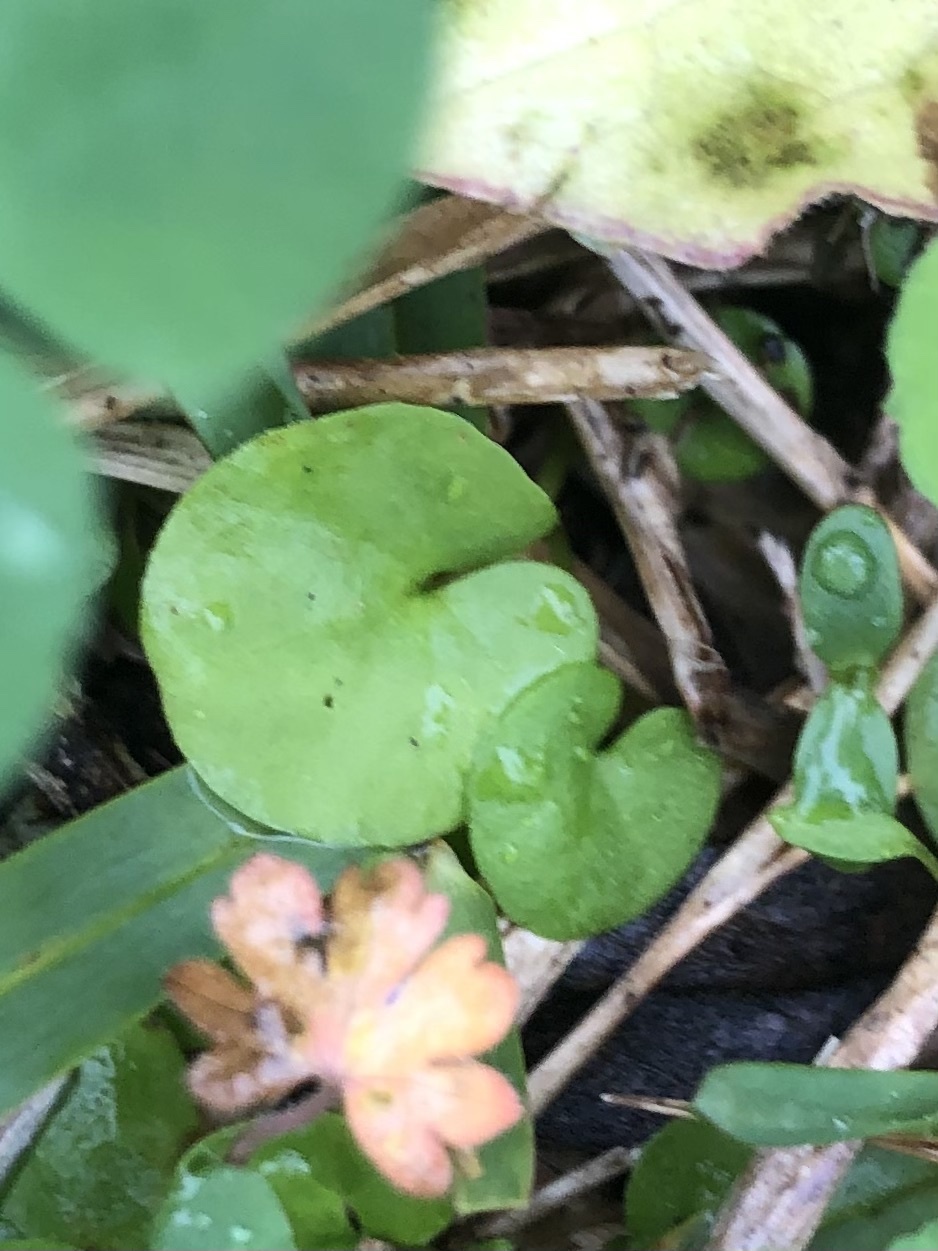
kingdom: Plantae
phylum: Tracheophyta
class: Magnoliopsida
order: Solanales
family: Convolvulaceae
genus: Dichondra
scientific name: Dichondra carolinensis
